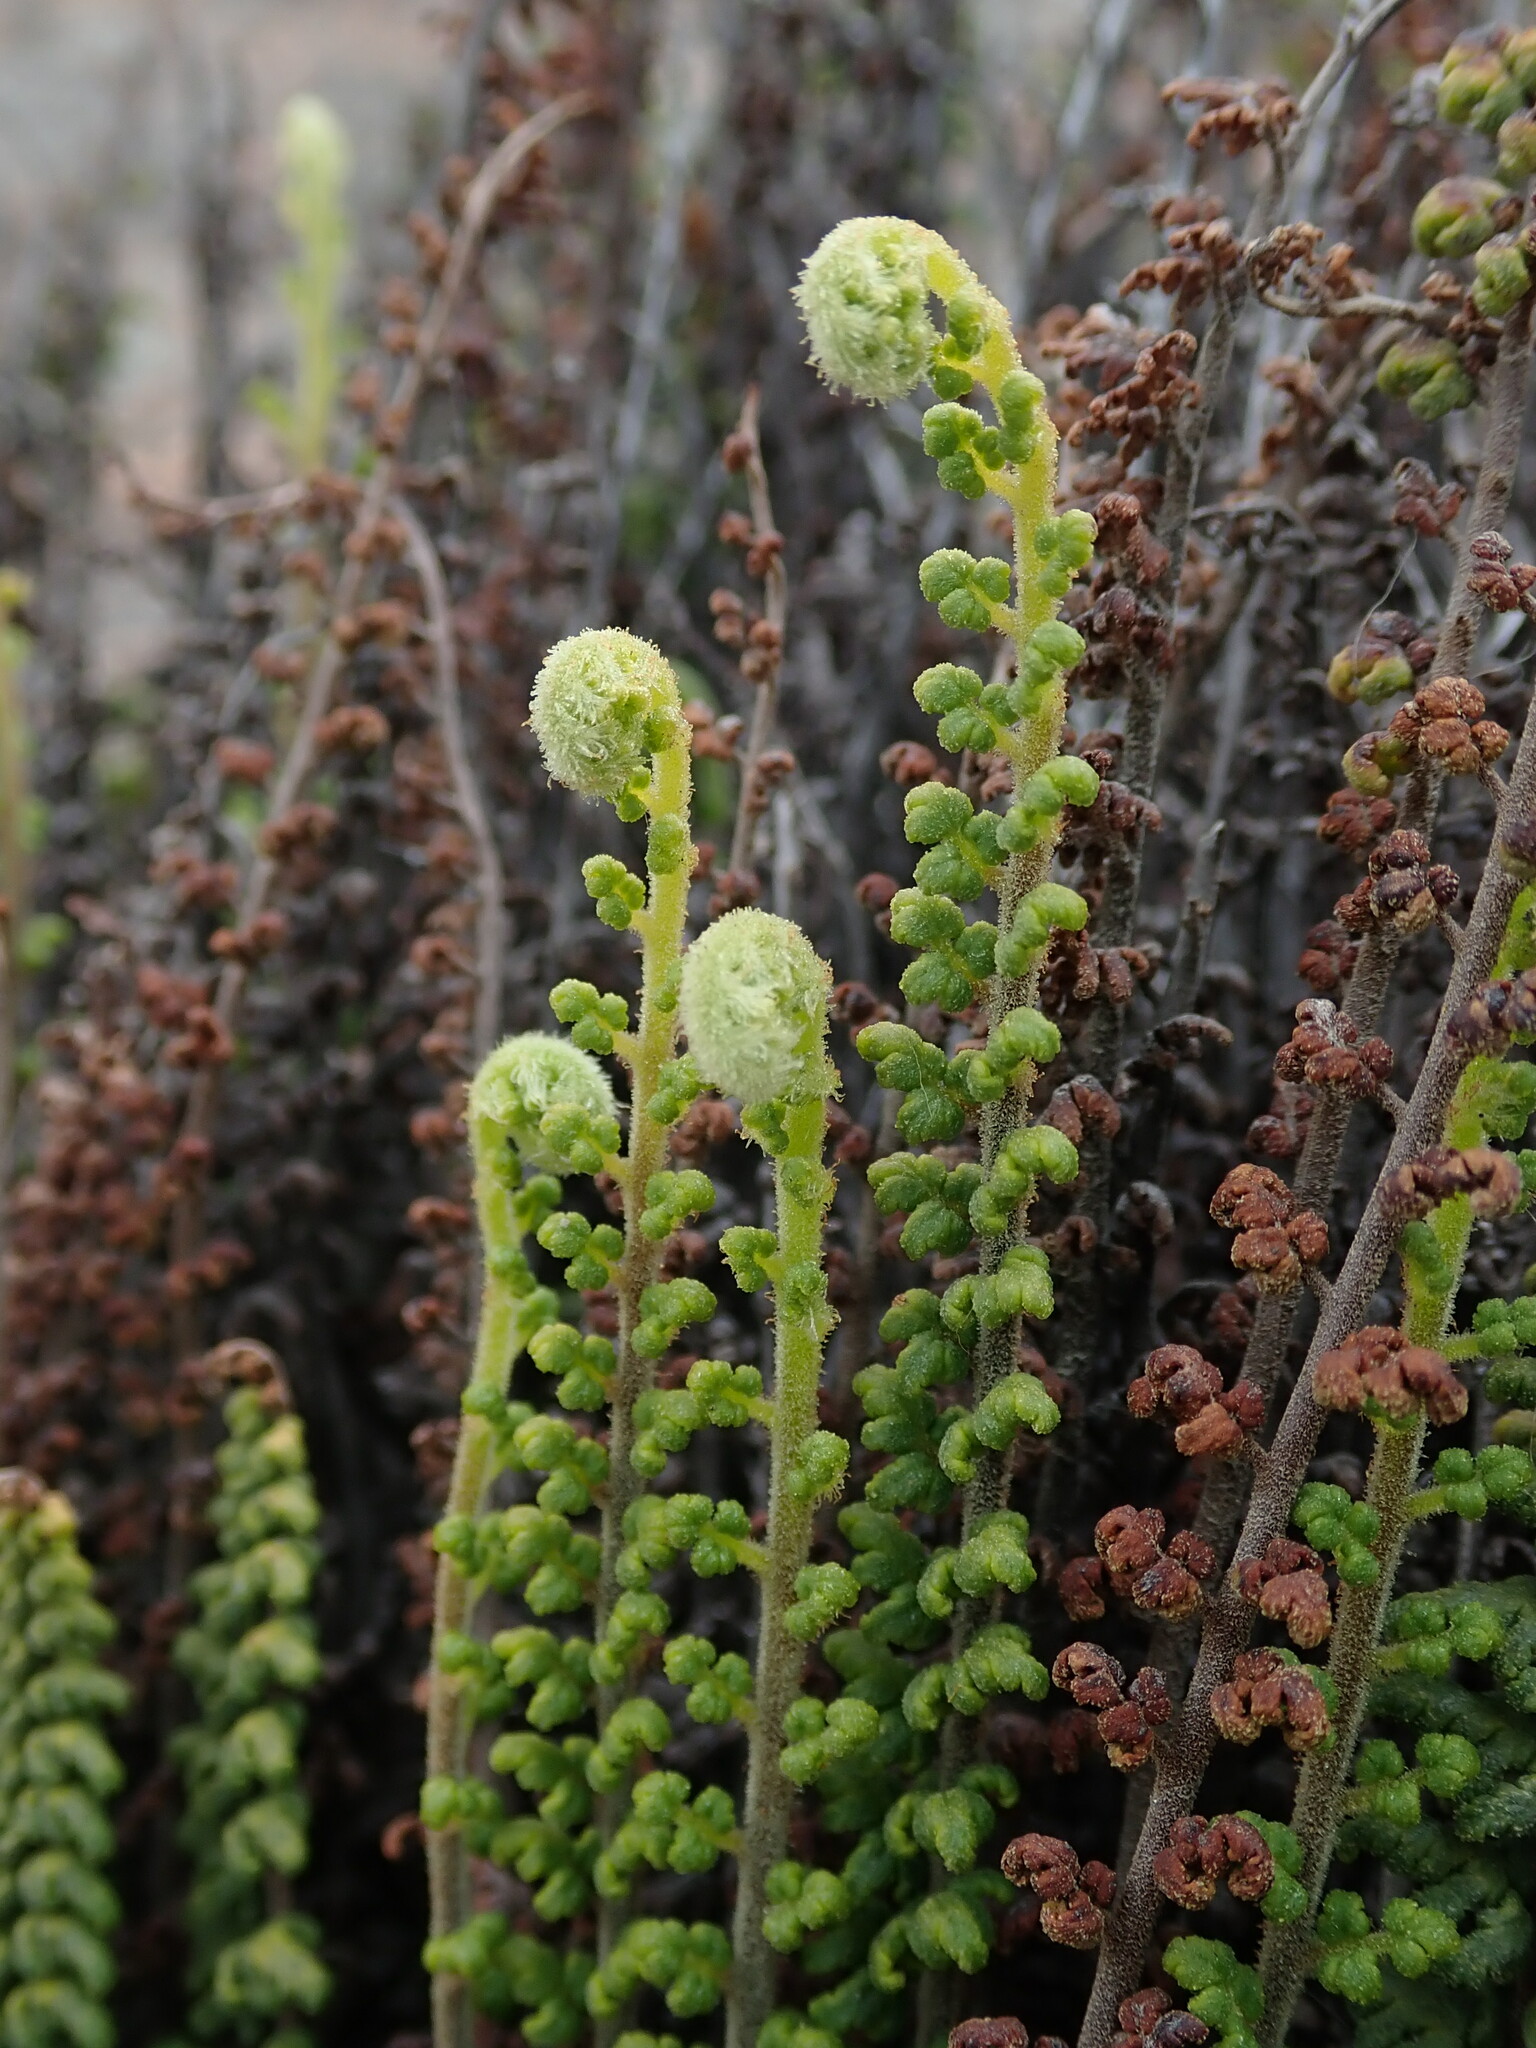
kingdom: Plantae
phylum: Tracheophyta
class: Polypodiopsida
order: Polypodiales
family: Pteridaceae
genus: Cheilanthes
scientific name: Cheilanthes pruinata
